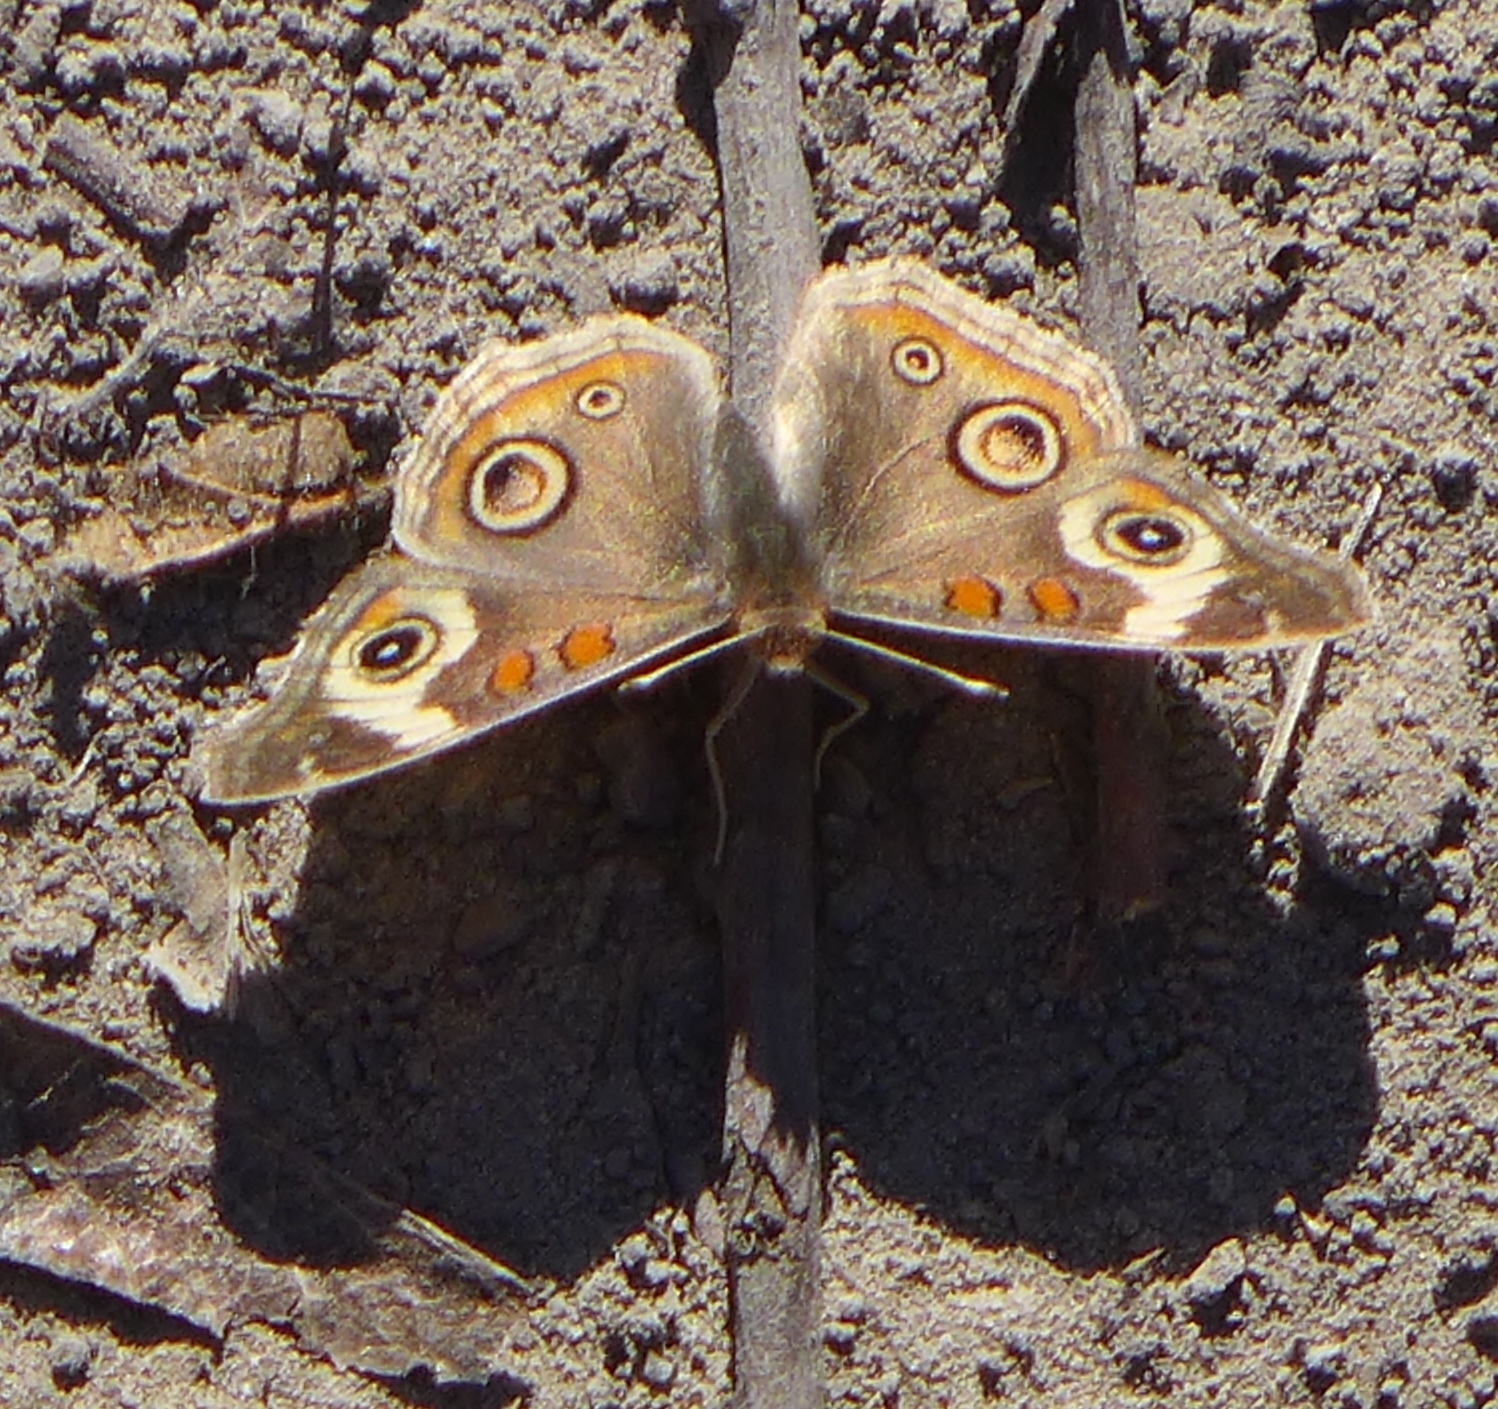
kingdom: Animalia
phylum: Arthropoda
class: Insecta
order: Lepidoptera
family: Nymphalidae
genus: Junonia
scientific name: Junonia grisea
